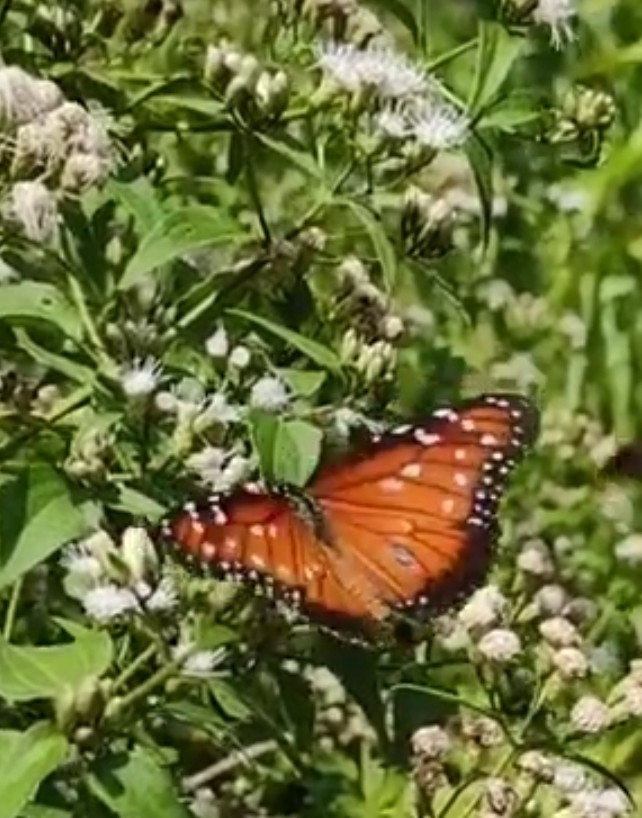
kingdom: Animalia
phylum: Arthropoda
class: Insecta
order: Lepidoptera
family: Nymphalidae
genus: Danaus
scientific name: Danaus eresimus
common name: Soldier
